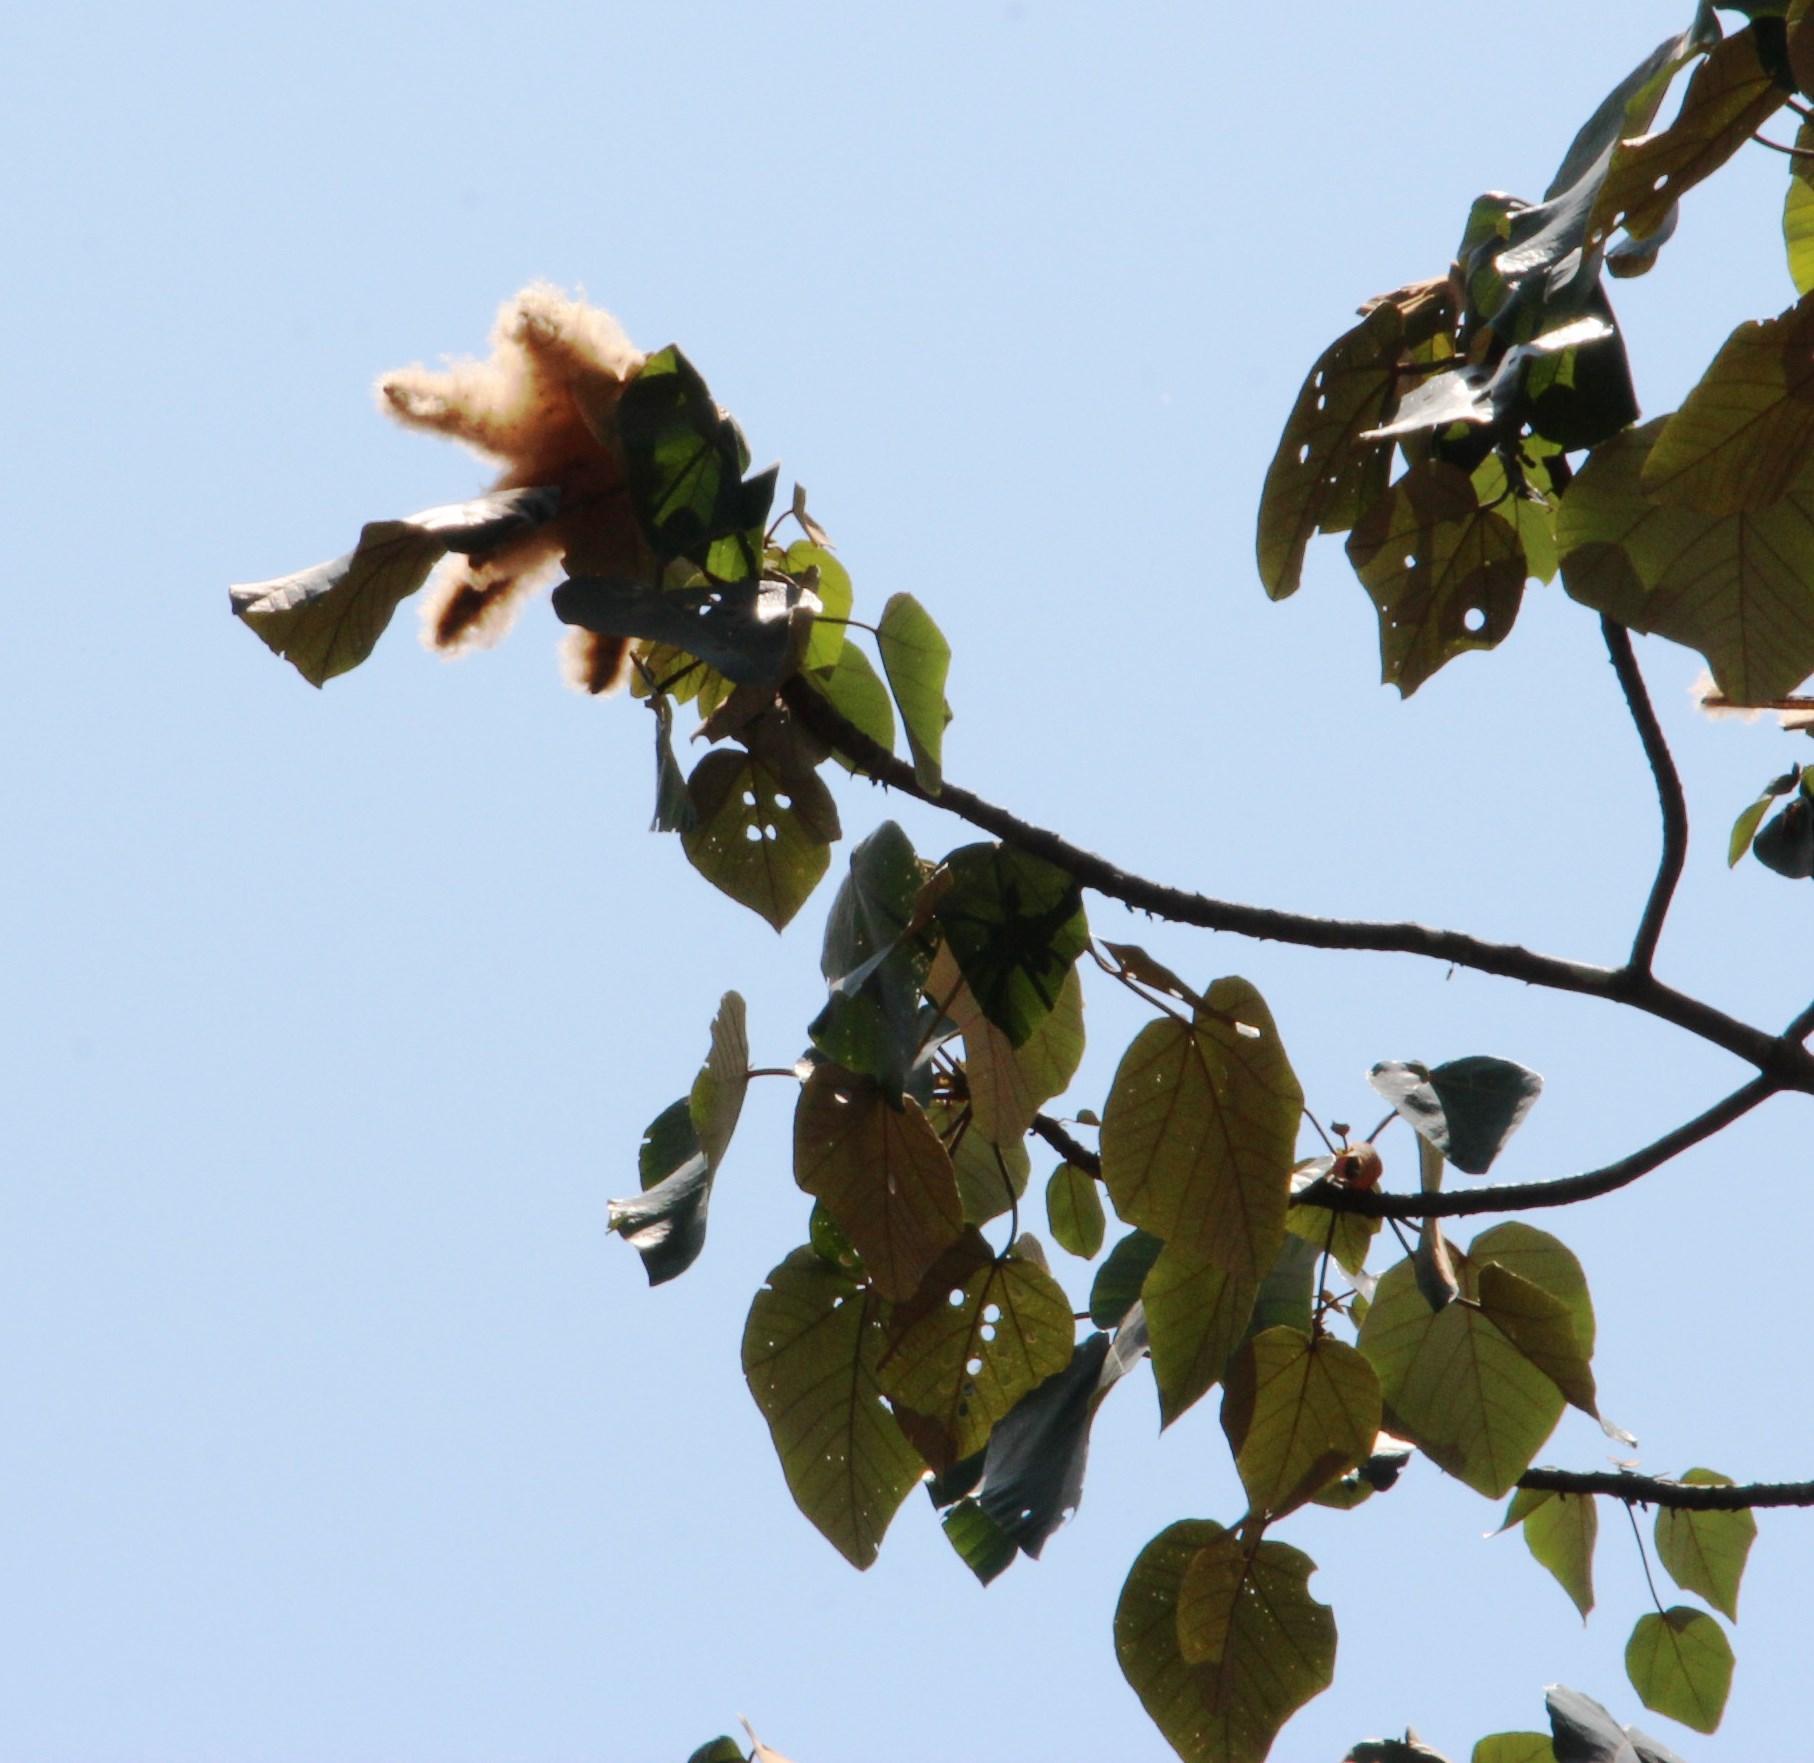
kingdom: Plantae
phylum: Tracheophyta
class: Magnoliopsida
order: Malvales
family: Malvaceae
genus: Ochroma
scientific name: Ochroma pyramidale
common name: Balsa
